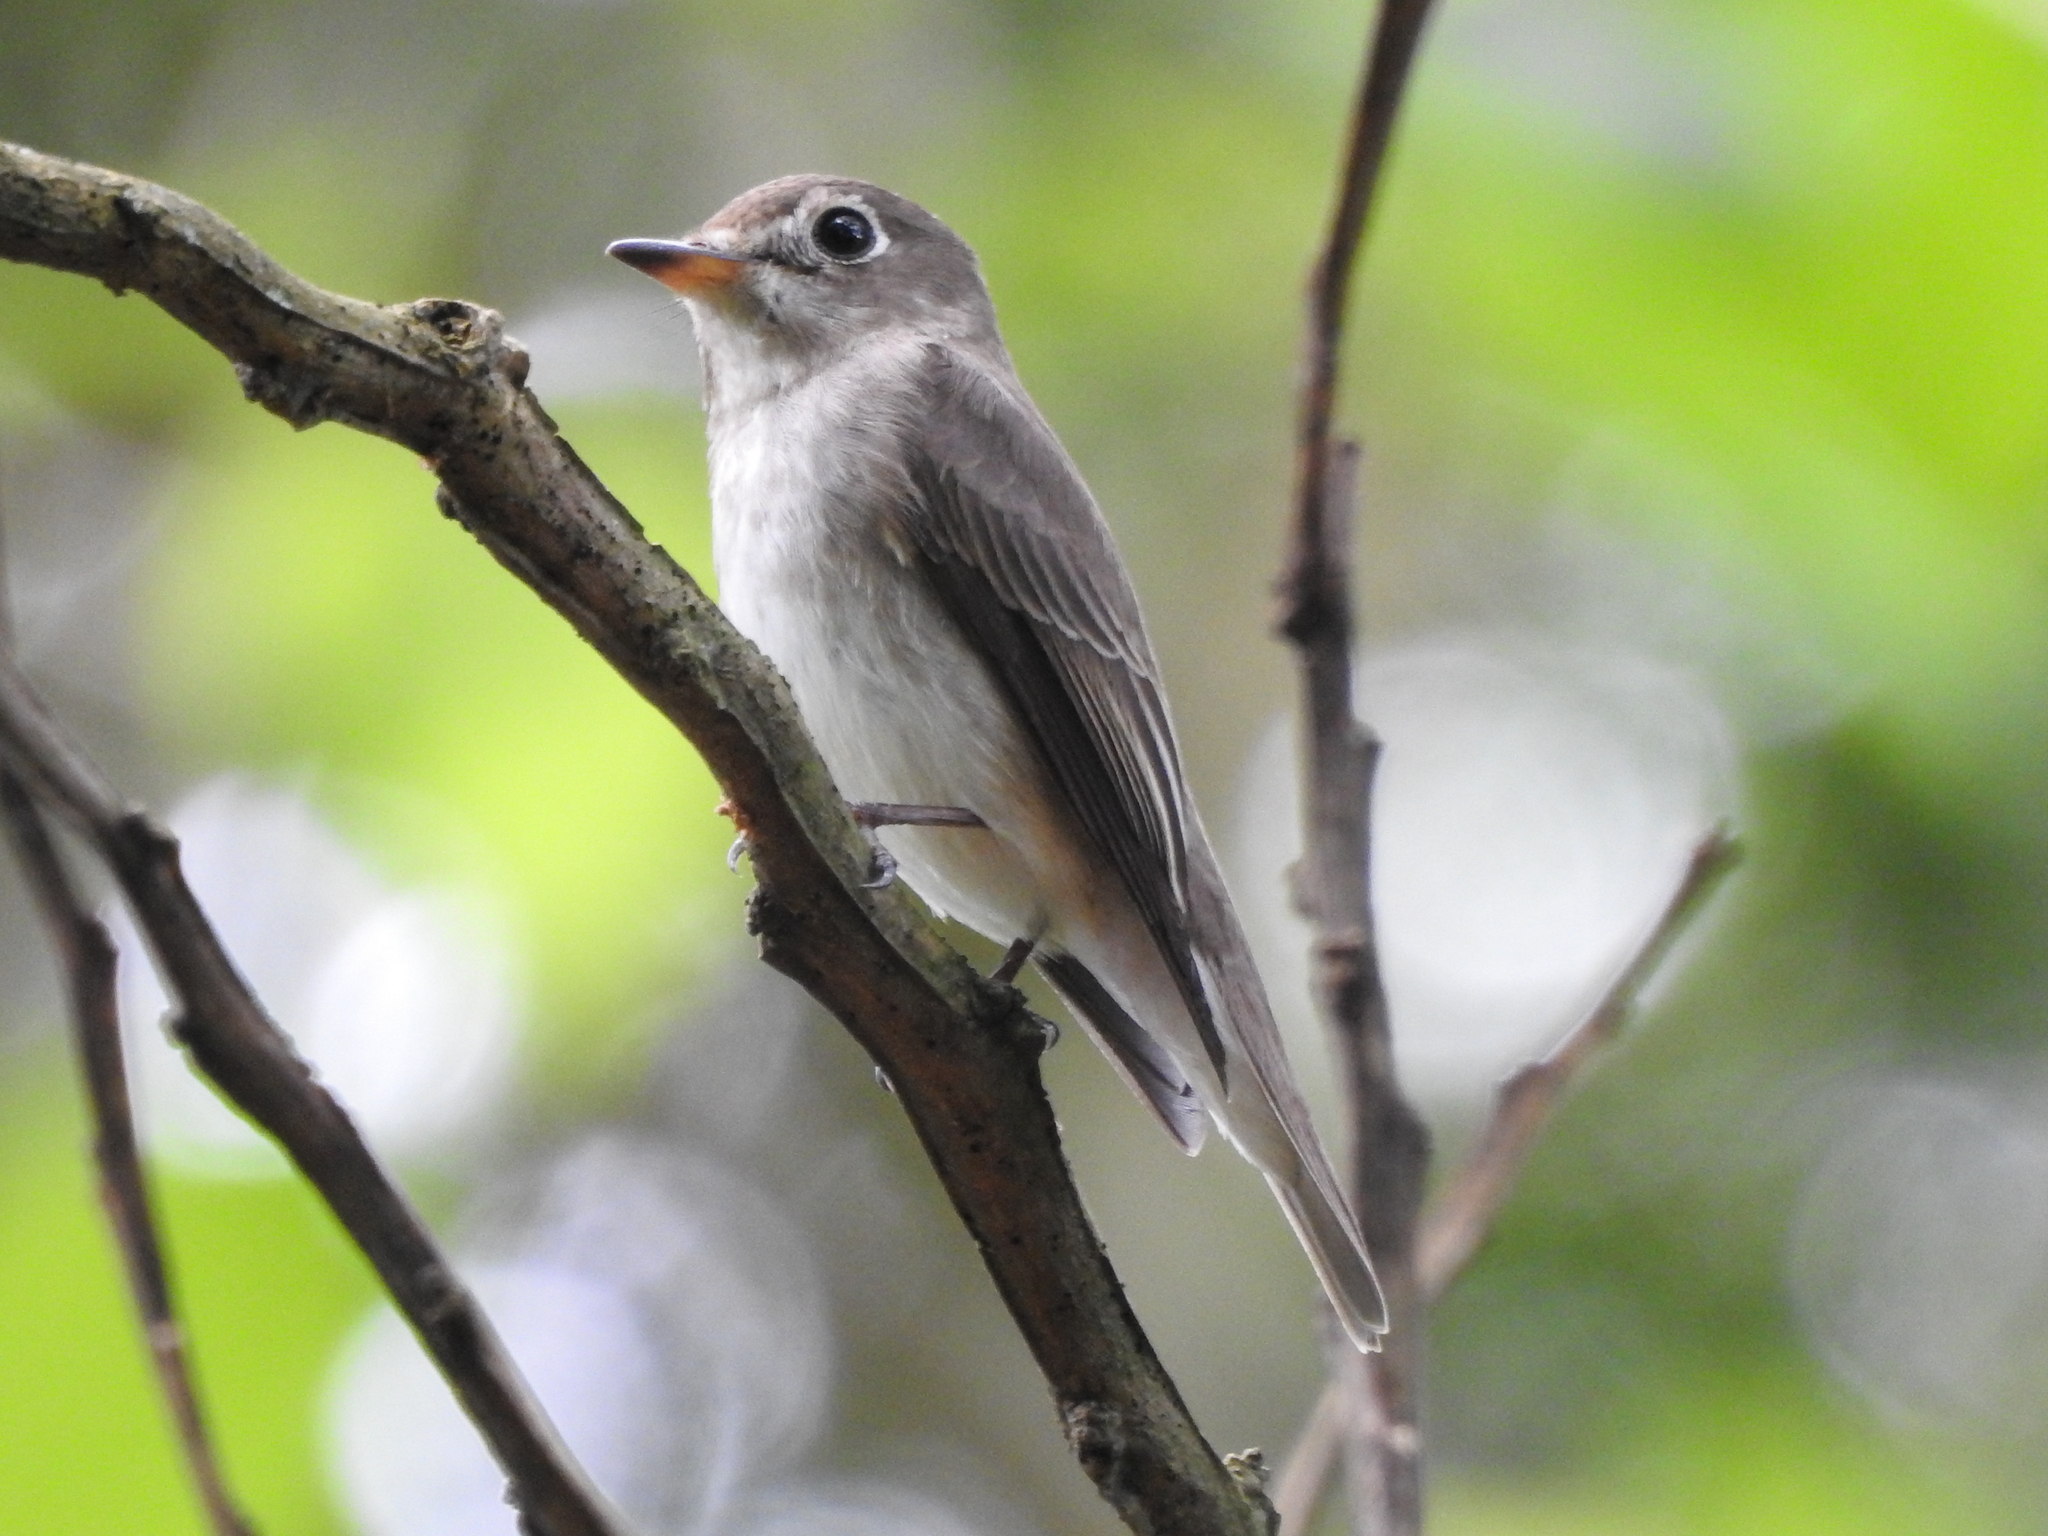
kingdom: Animalia
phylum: Chordata
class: Aves
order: Passeriformes
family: Muscicapidae
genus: Muscicapa
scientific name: Muscicapa latirostris
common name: Asian brown flycatcher
